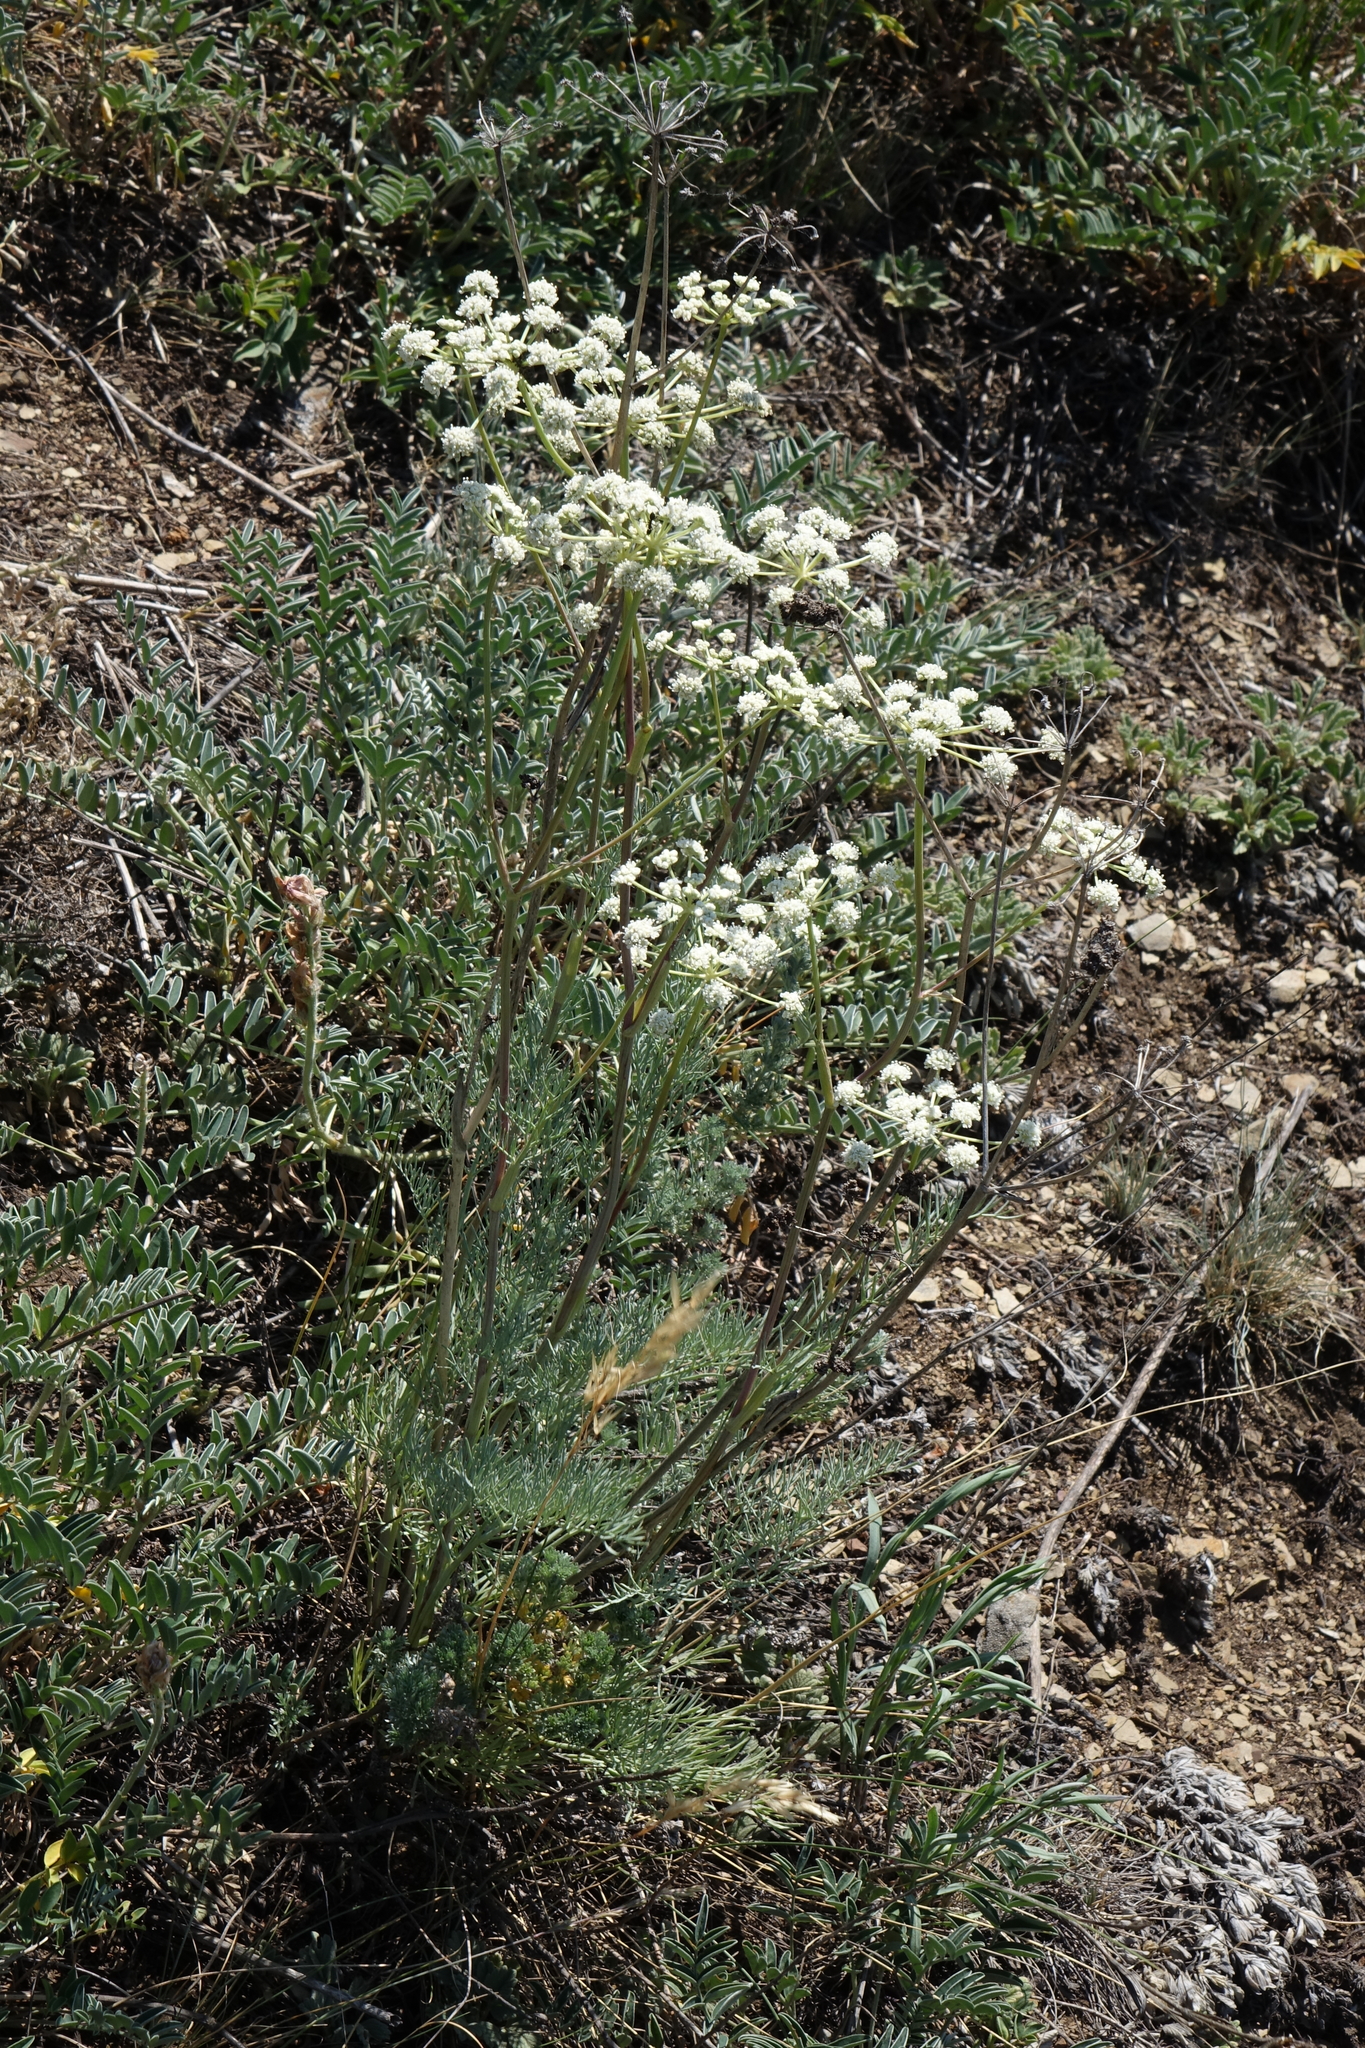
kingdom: Plantae
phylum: Tracheophyta
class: Magnoliopsida
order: Apiales
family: Apiaceae
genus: Seseli
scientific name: Seseli ledebourii
